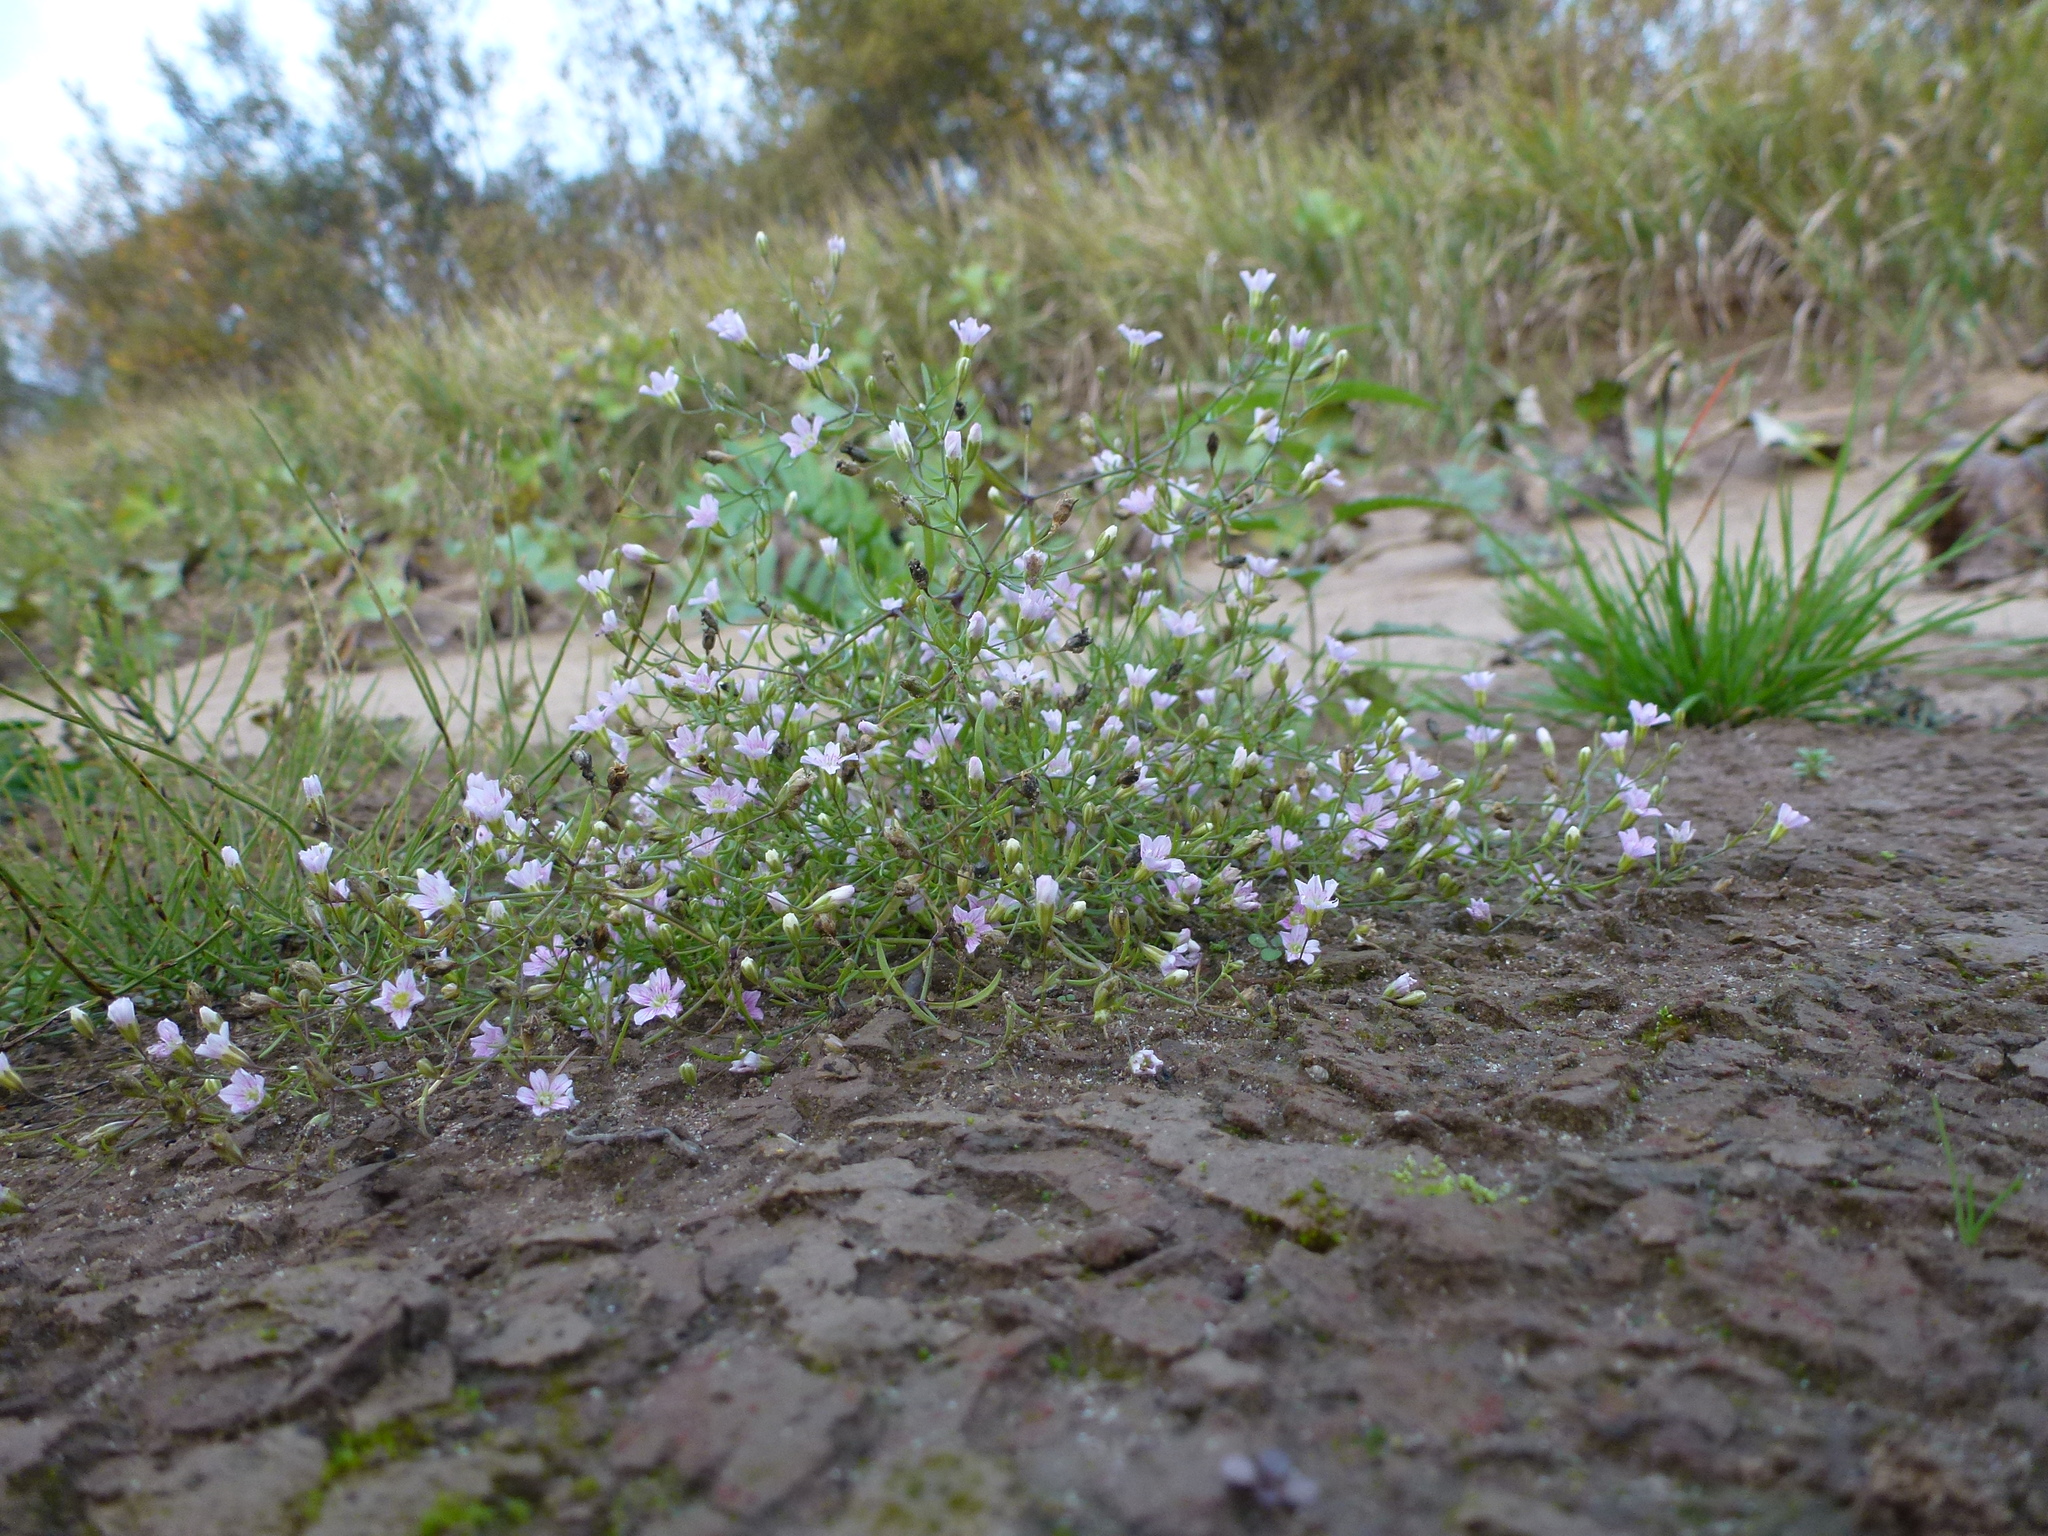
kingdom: Plantae
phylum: Tracheophyta
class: Magnoliopsida
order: Caryophyllales
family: Caryophyllaceae
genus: Psammophiliella
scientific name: Psammophiliella muralis
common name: Cushion baby's-breath
